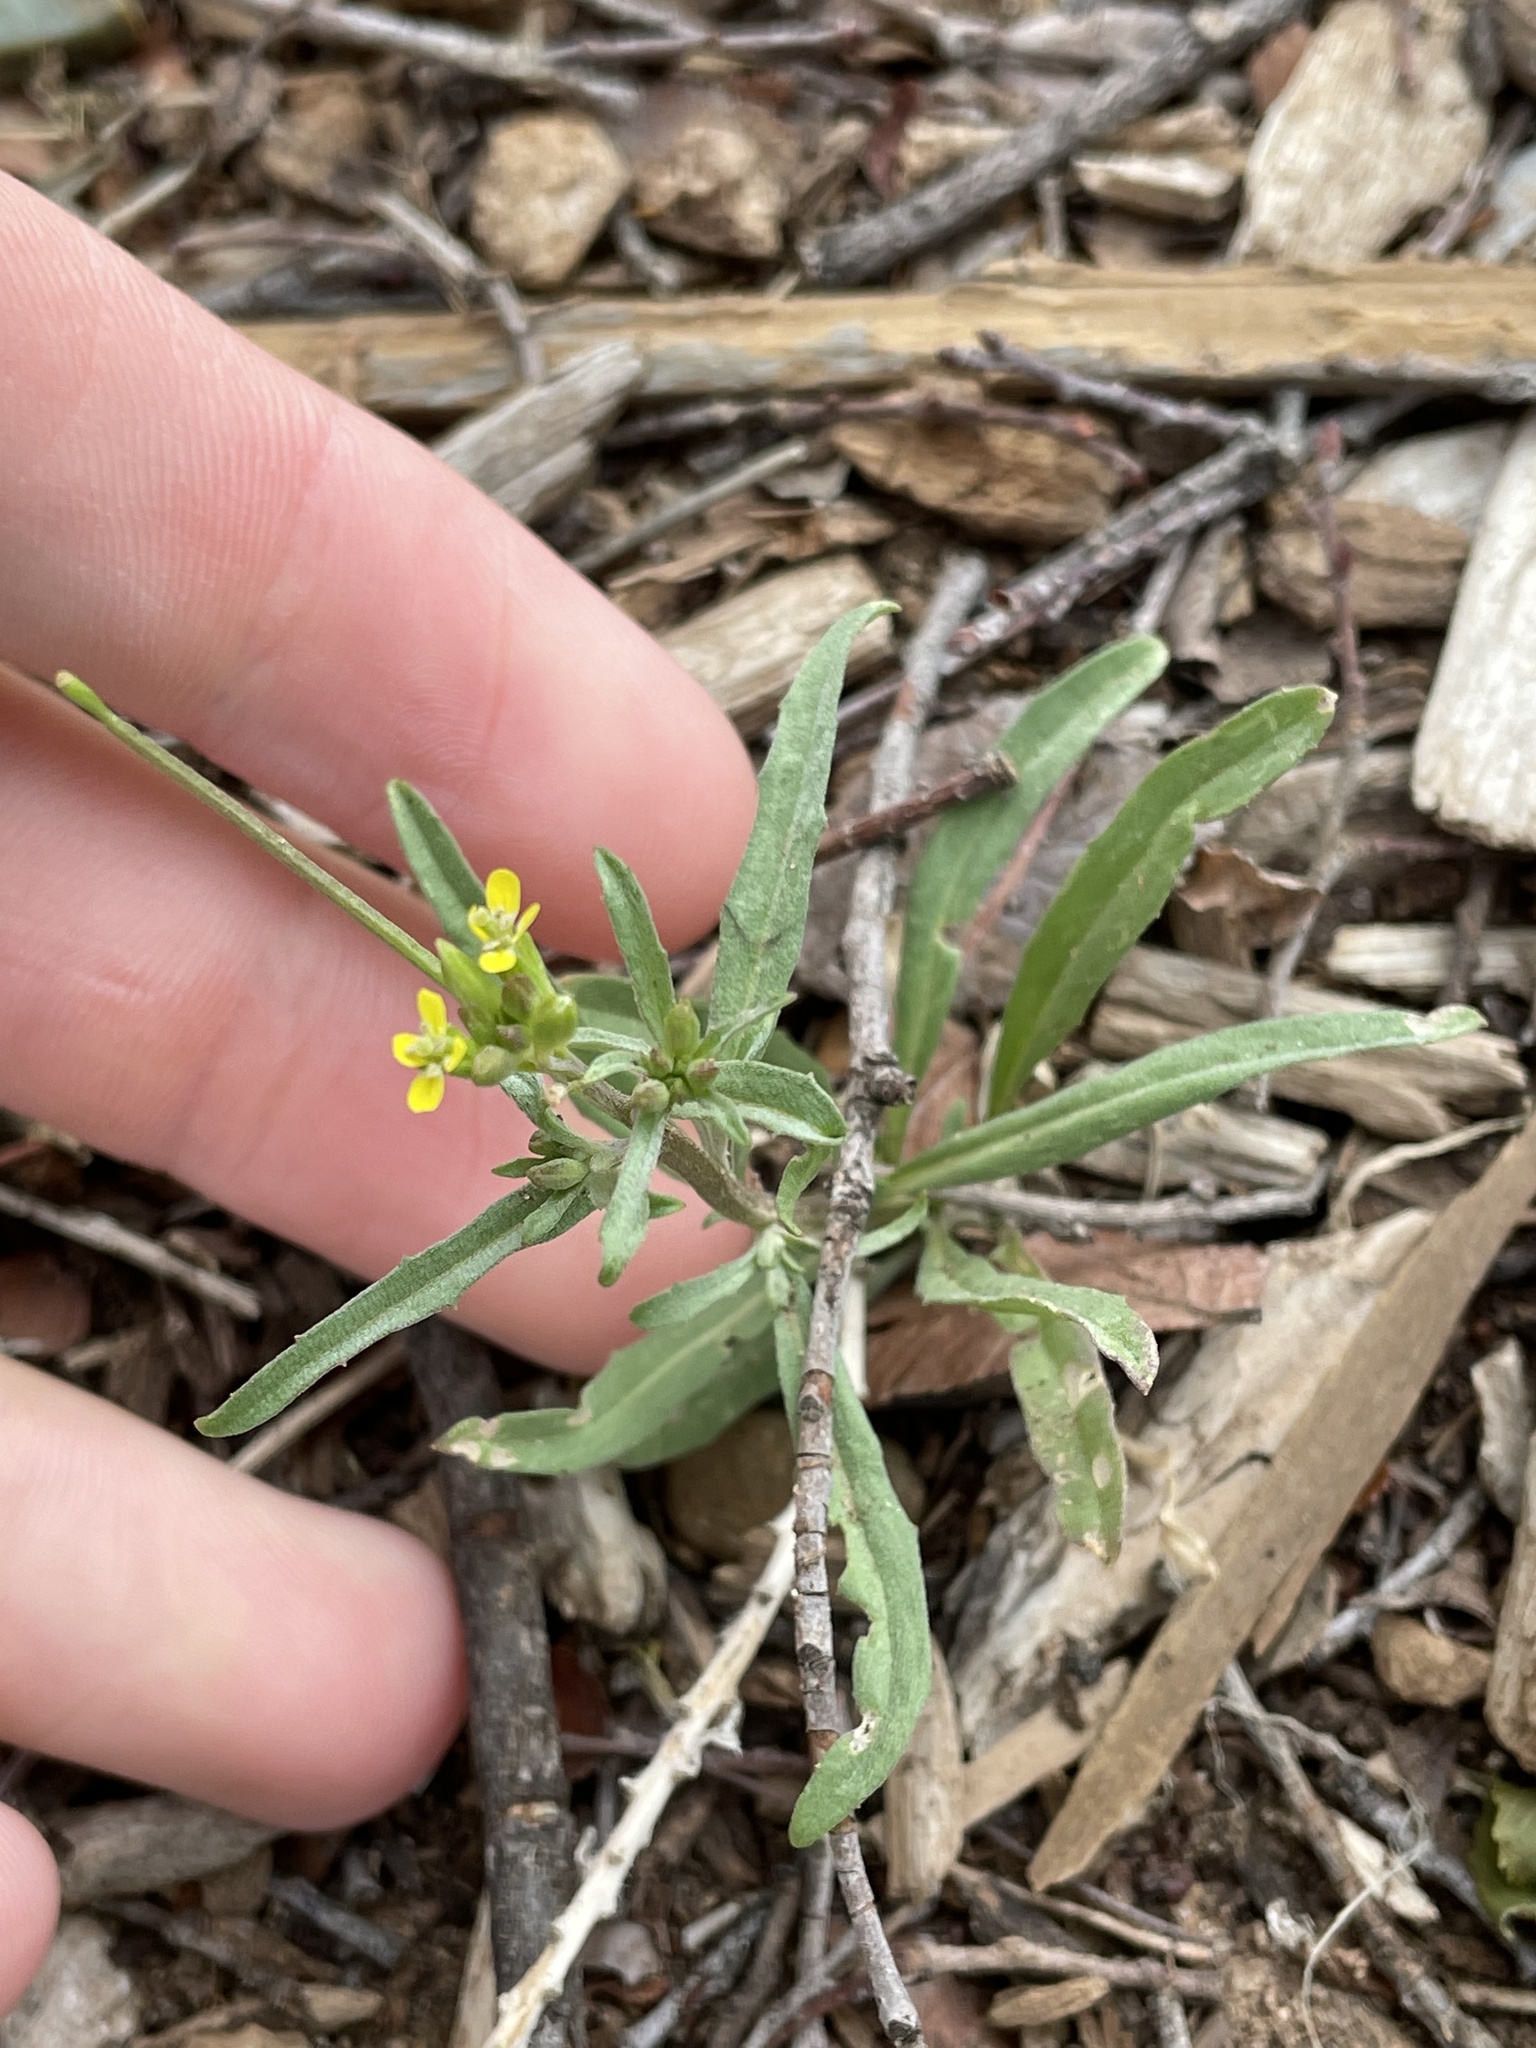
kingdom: Plantae
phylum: Tracheophyta
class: Magnoliopsida
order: Brassicales
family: Brassicaceae
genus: Erysimum
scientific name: Erysimum repandum
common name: Spreading wallflower
